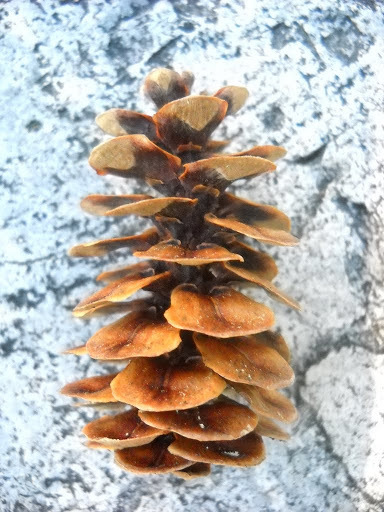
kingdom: Plantae
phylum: Tracheophyta
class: Pinopsida
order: Pinales
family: Pinaceae
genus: Tsuga
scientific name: Tsuga mertensiana
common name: Mountain hemlock
